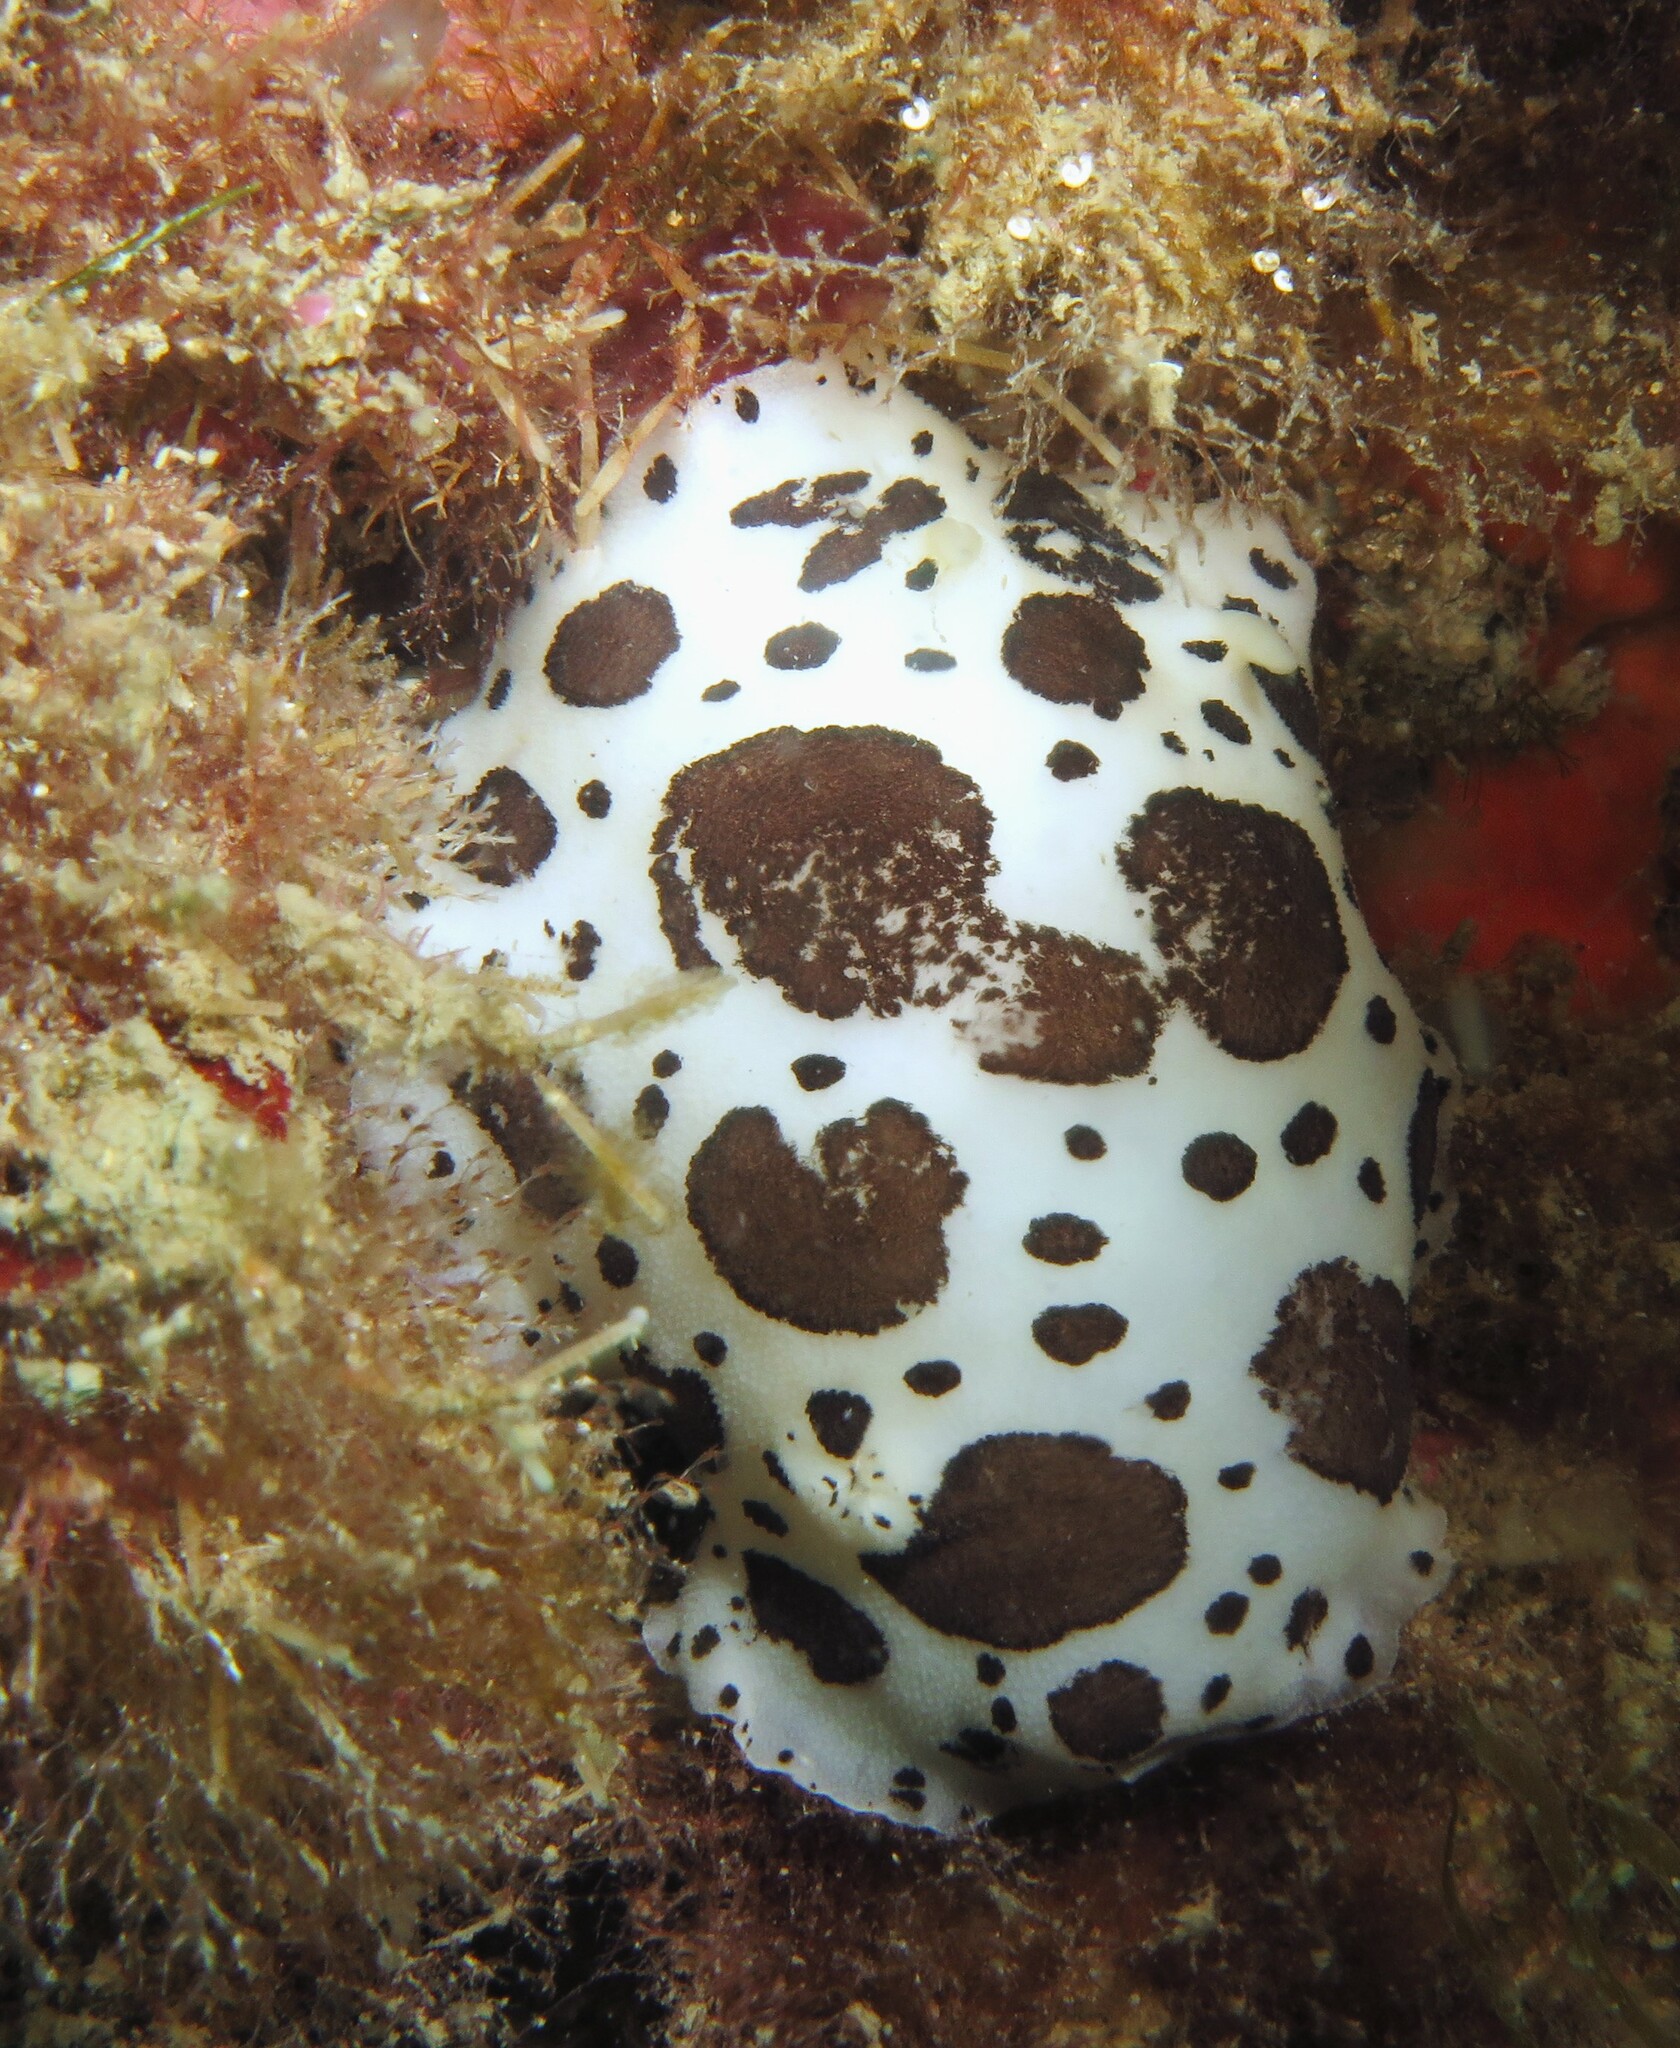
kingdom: Animalia
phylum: Mollusca
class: Gastropoda
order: Nudibranchia
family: Discodorididae
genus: Peltodoris
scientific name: Peltodoris atromaculata
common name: Swiss cow nudibranch
